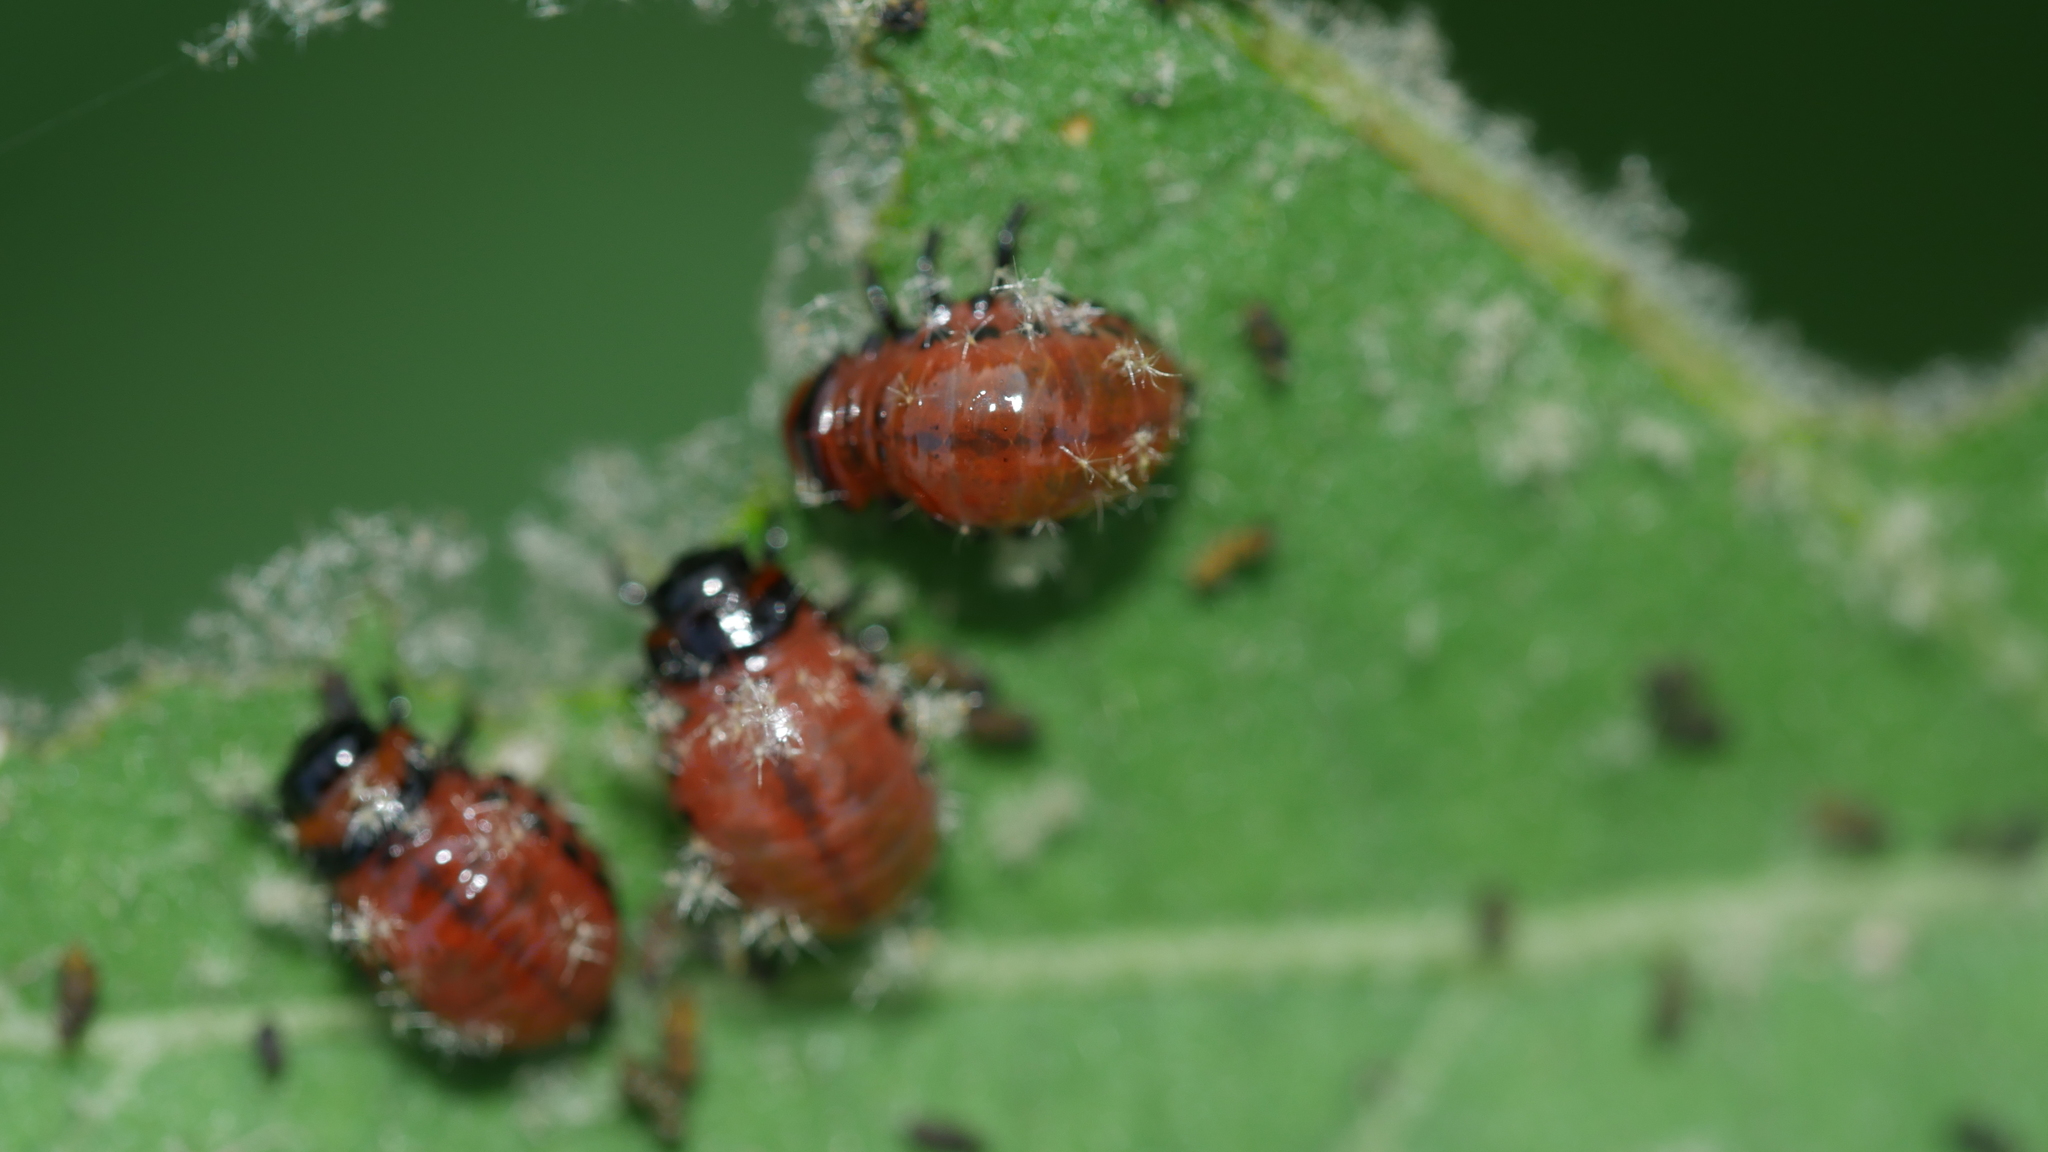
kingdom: Animalia
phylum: Arthropoda
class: Insecta
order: Coleoptera
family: Chrysomelidae
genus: Leptinotarsa
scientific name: Leptinotarsa decemlineata
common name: Colorado potato beetle
